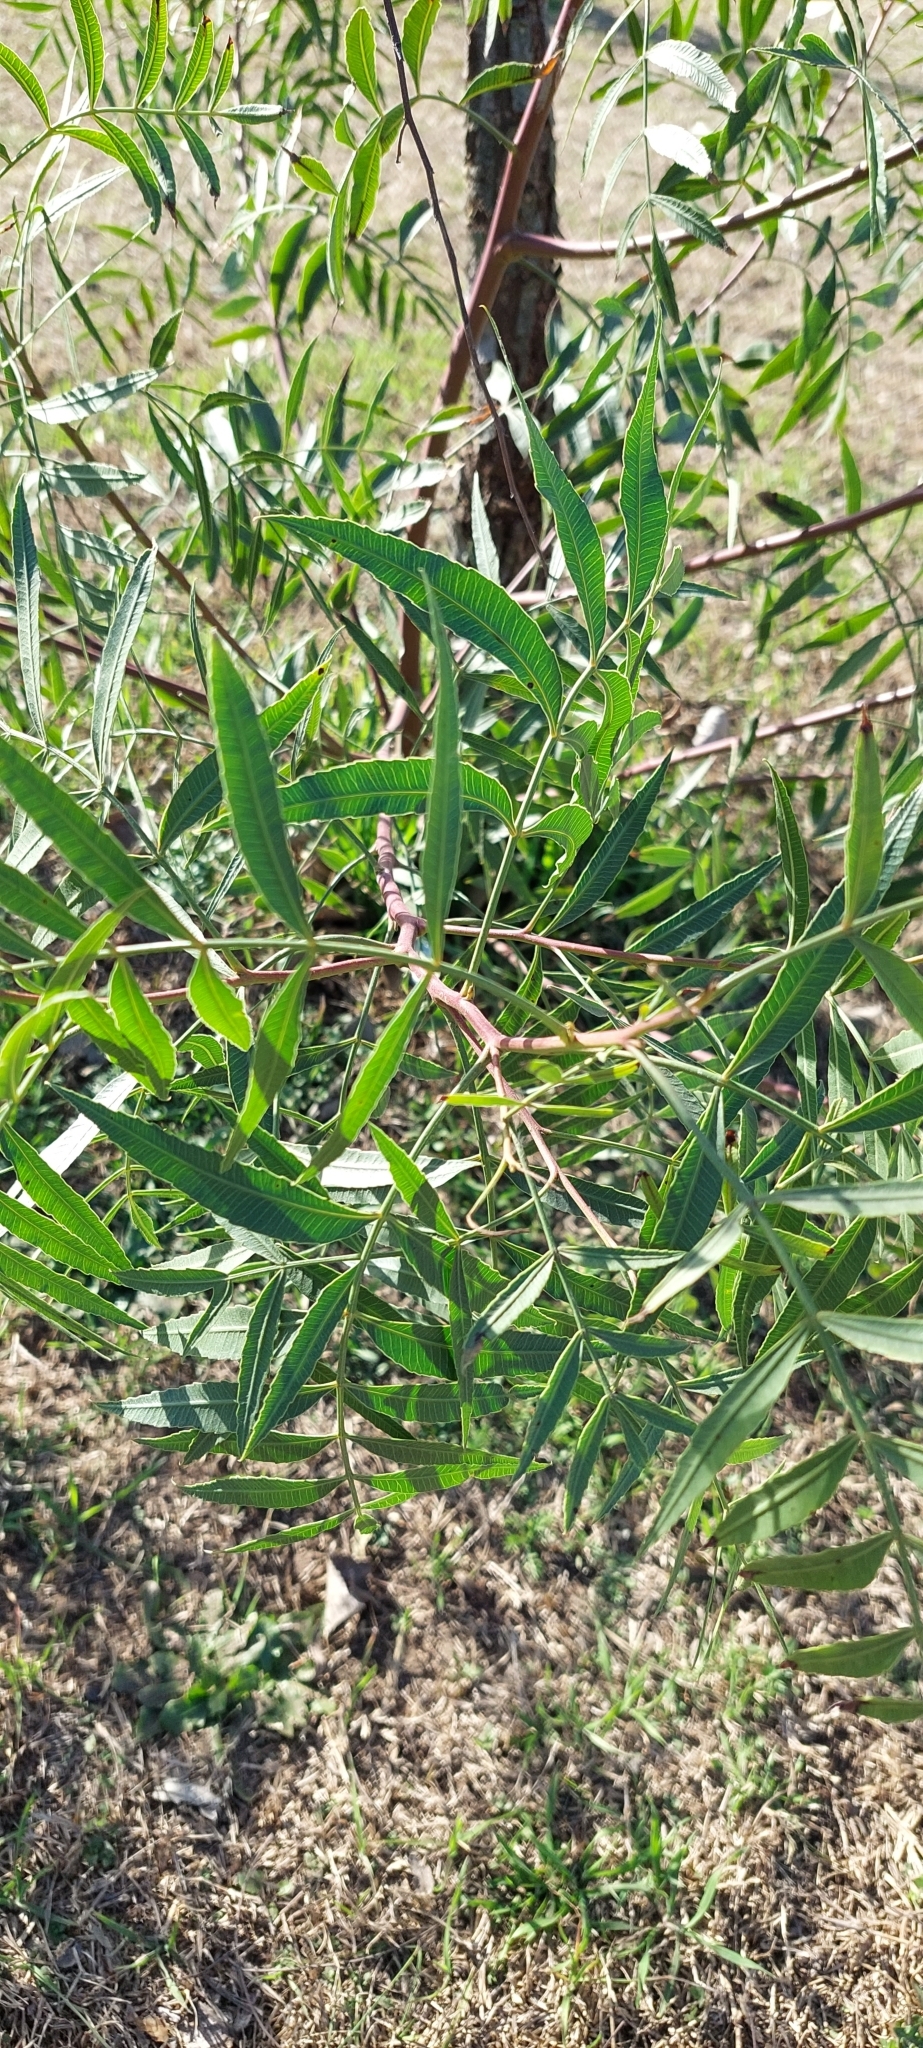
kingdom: Plantae
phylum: Tracheophyta
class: Magnoliopsida
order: Sapindales
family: Anacardiaceae
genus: Schinus
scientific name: Schinus molle
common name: Peruvian peppertree
